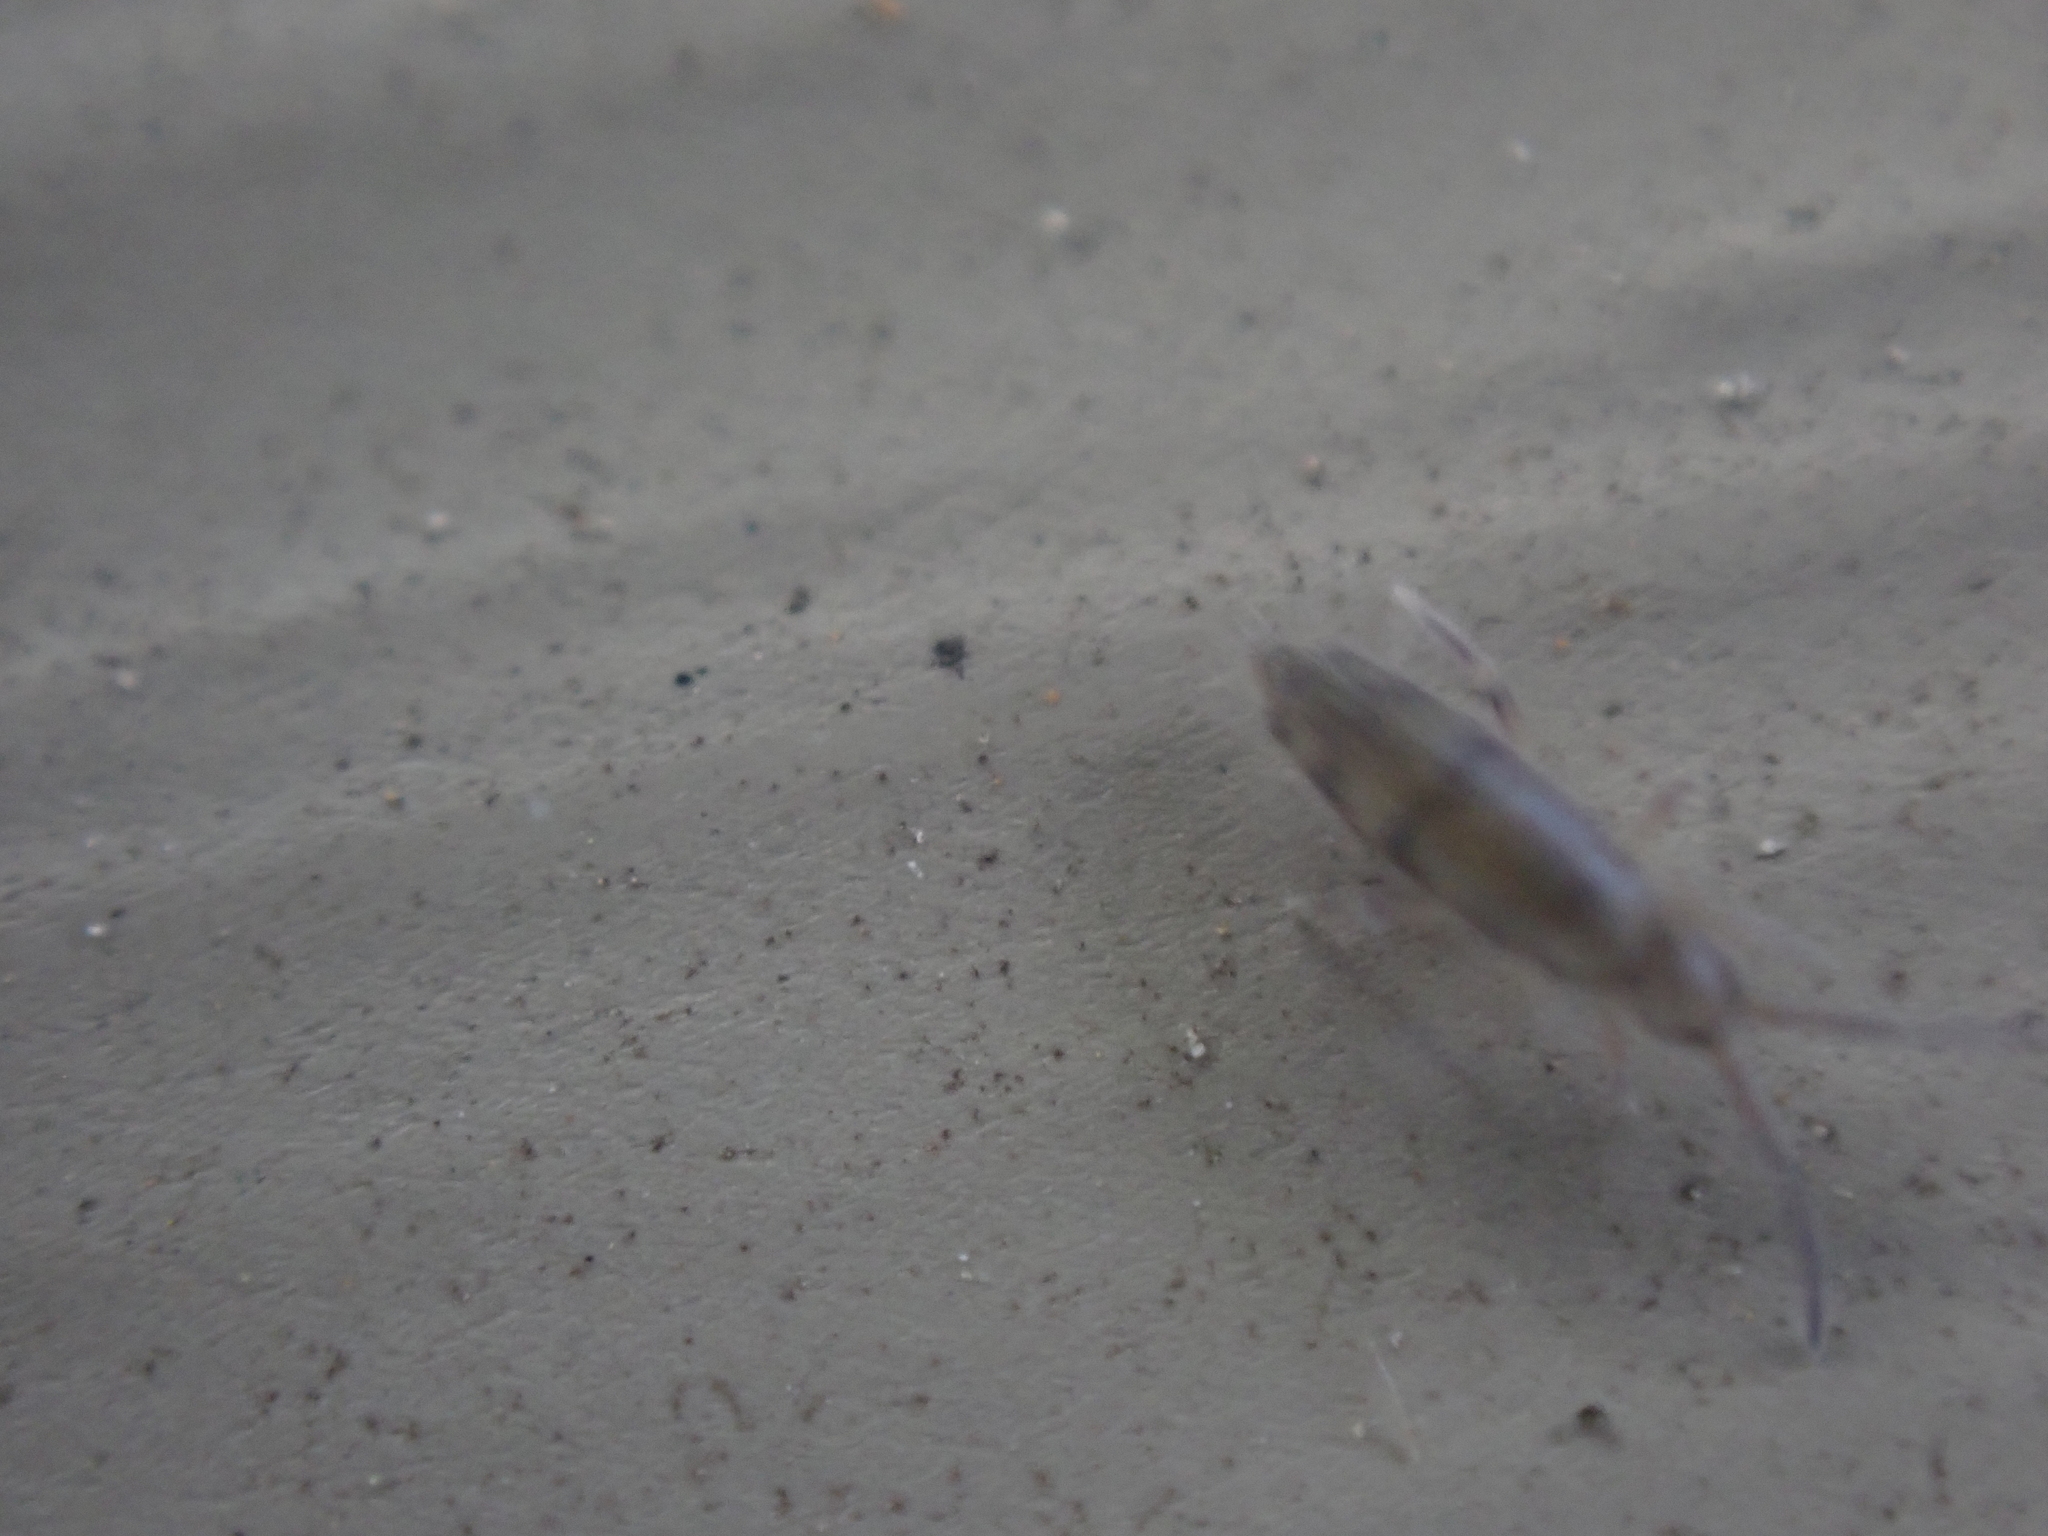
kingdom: Animalia
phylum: Arthropoda
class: Collembola
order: Entomobryomorpha
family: Entomobryidae
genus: Willowsia
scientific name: Willowsia nigromaculata
